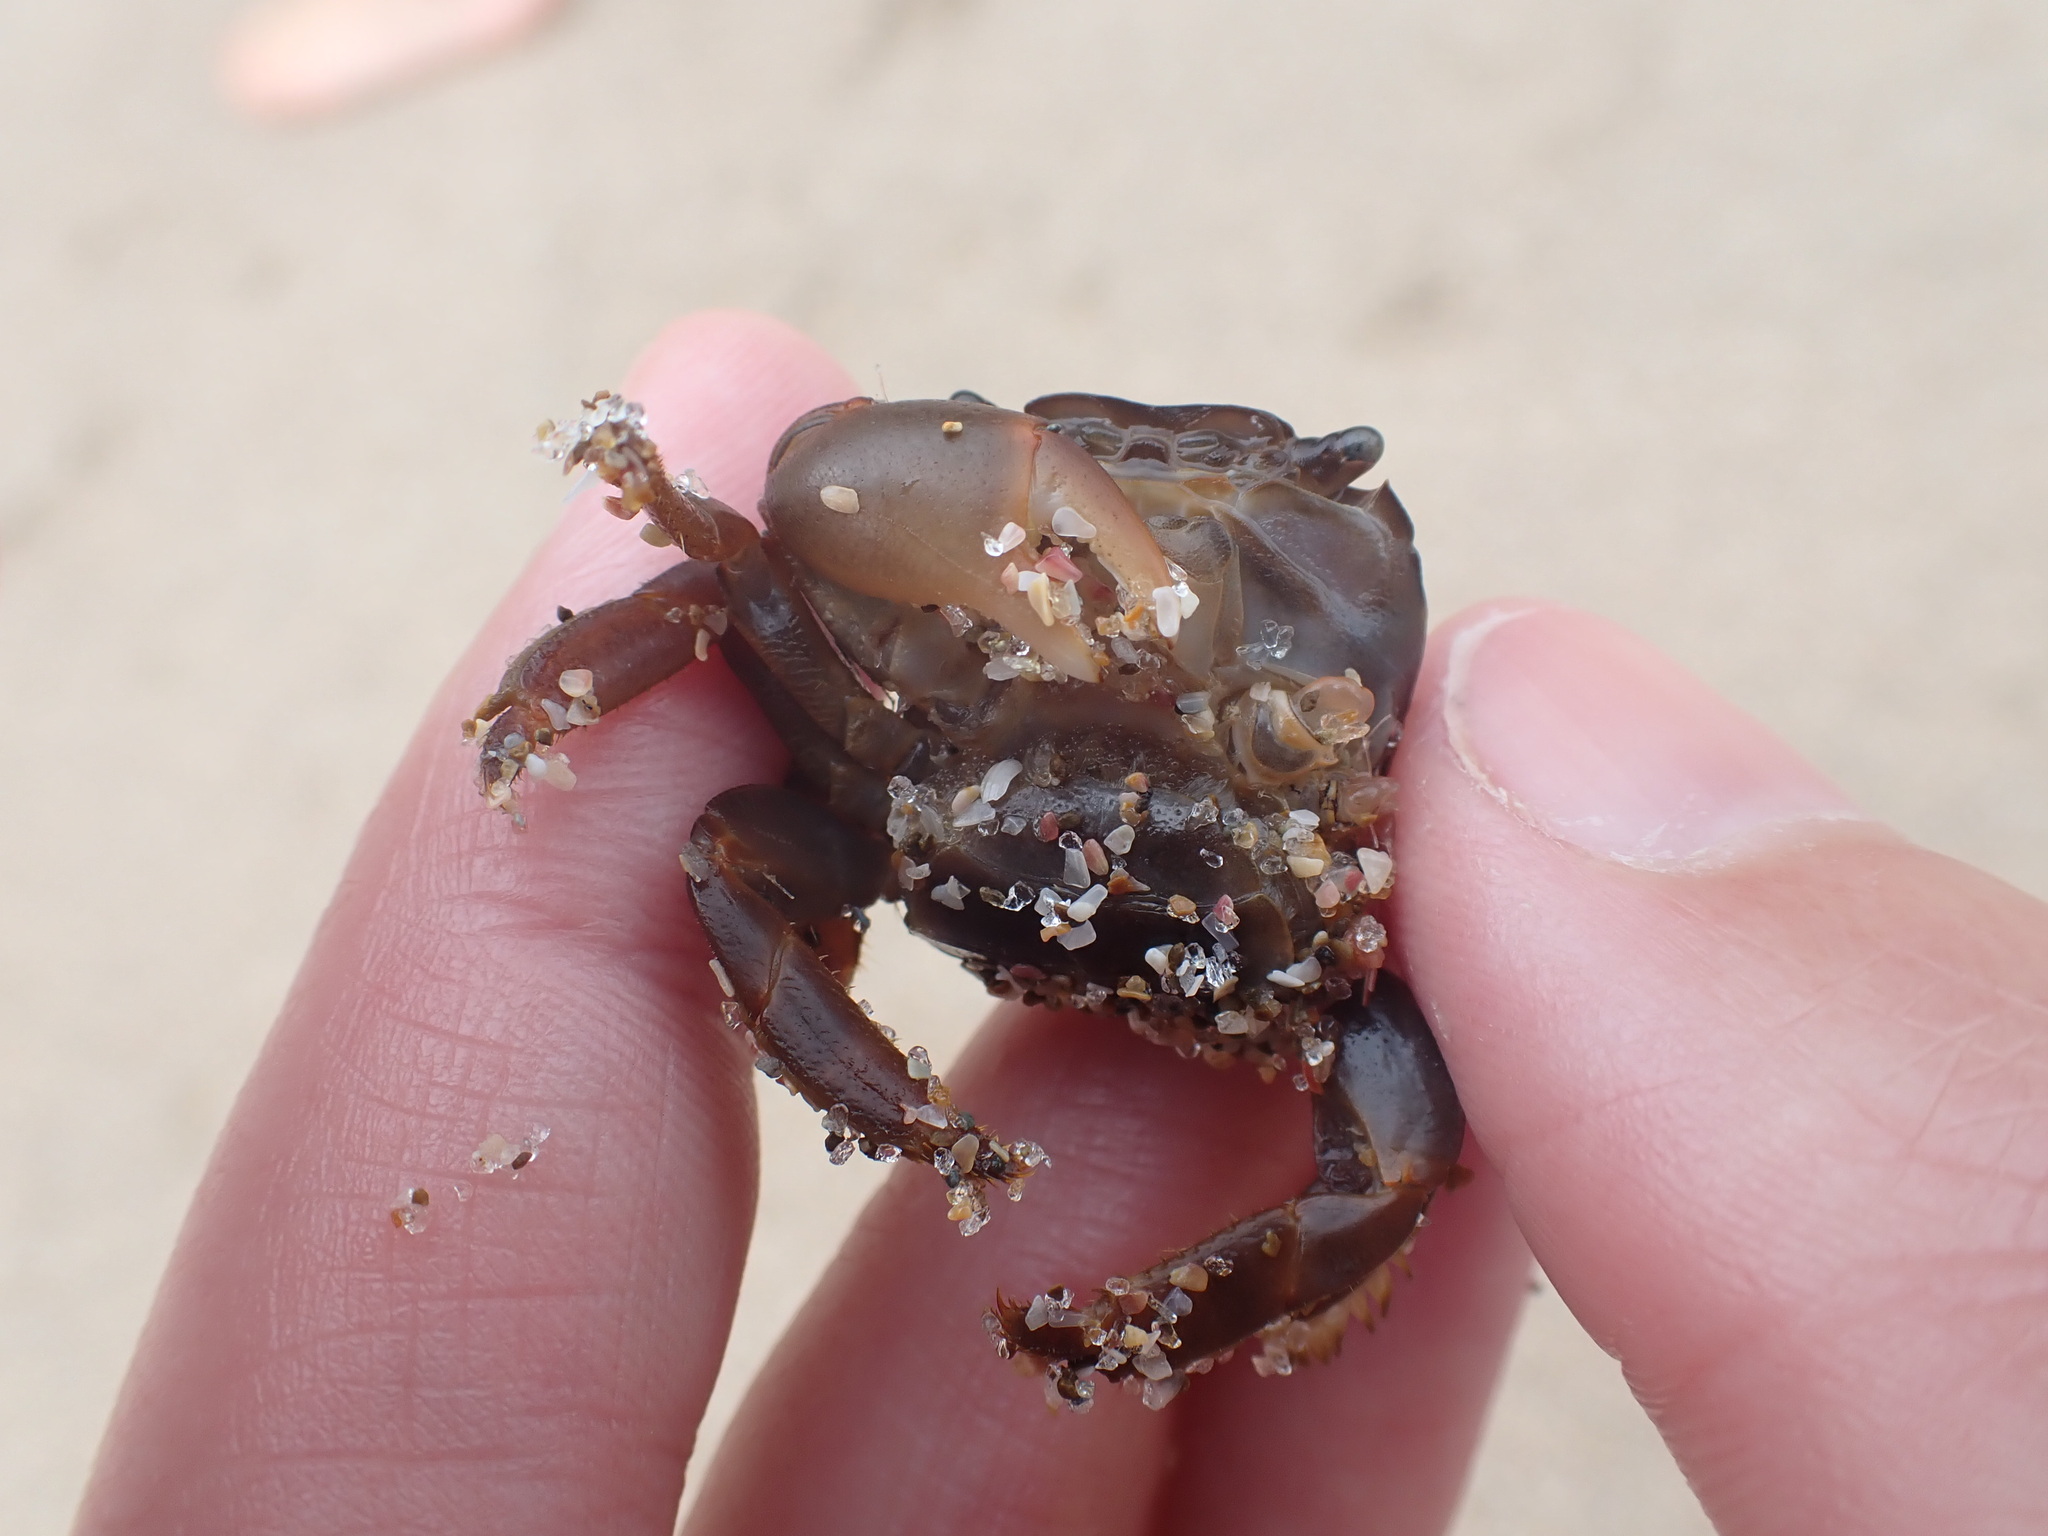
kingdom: Animalia
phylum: Arthropoda
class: Malacostraca
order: Decapoda
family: Grapsidae
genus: Planes
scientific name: Planes minutus
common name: Gulf weed crab
